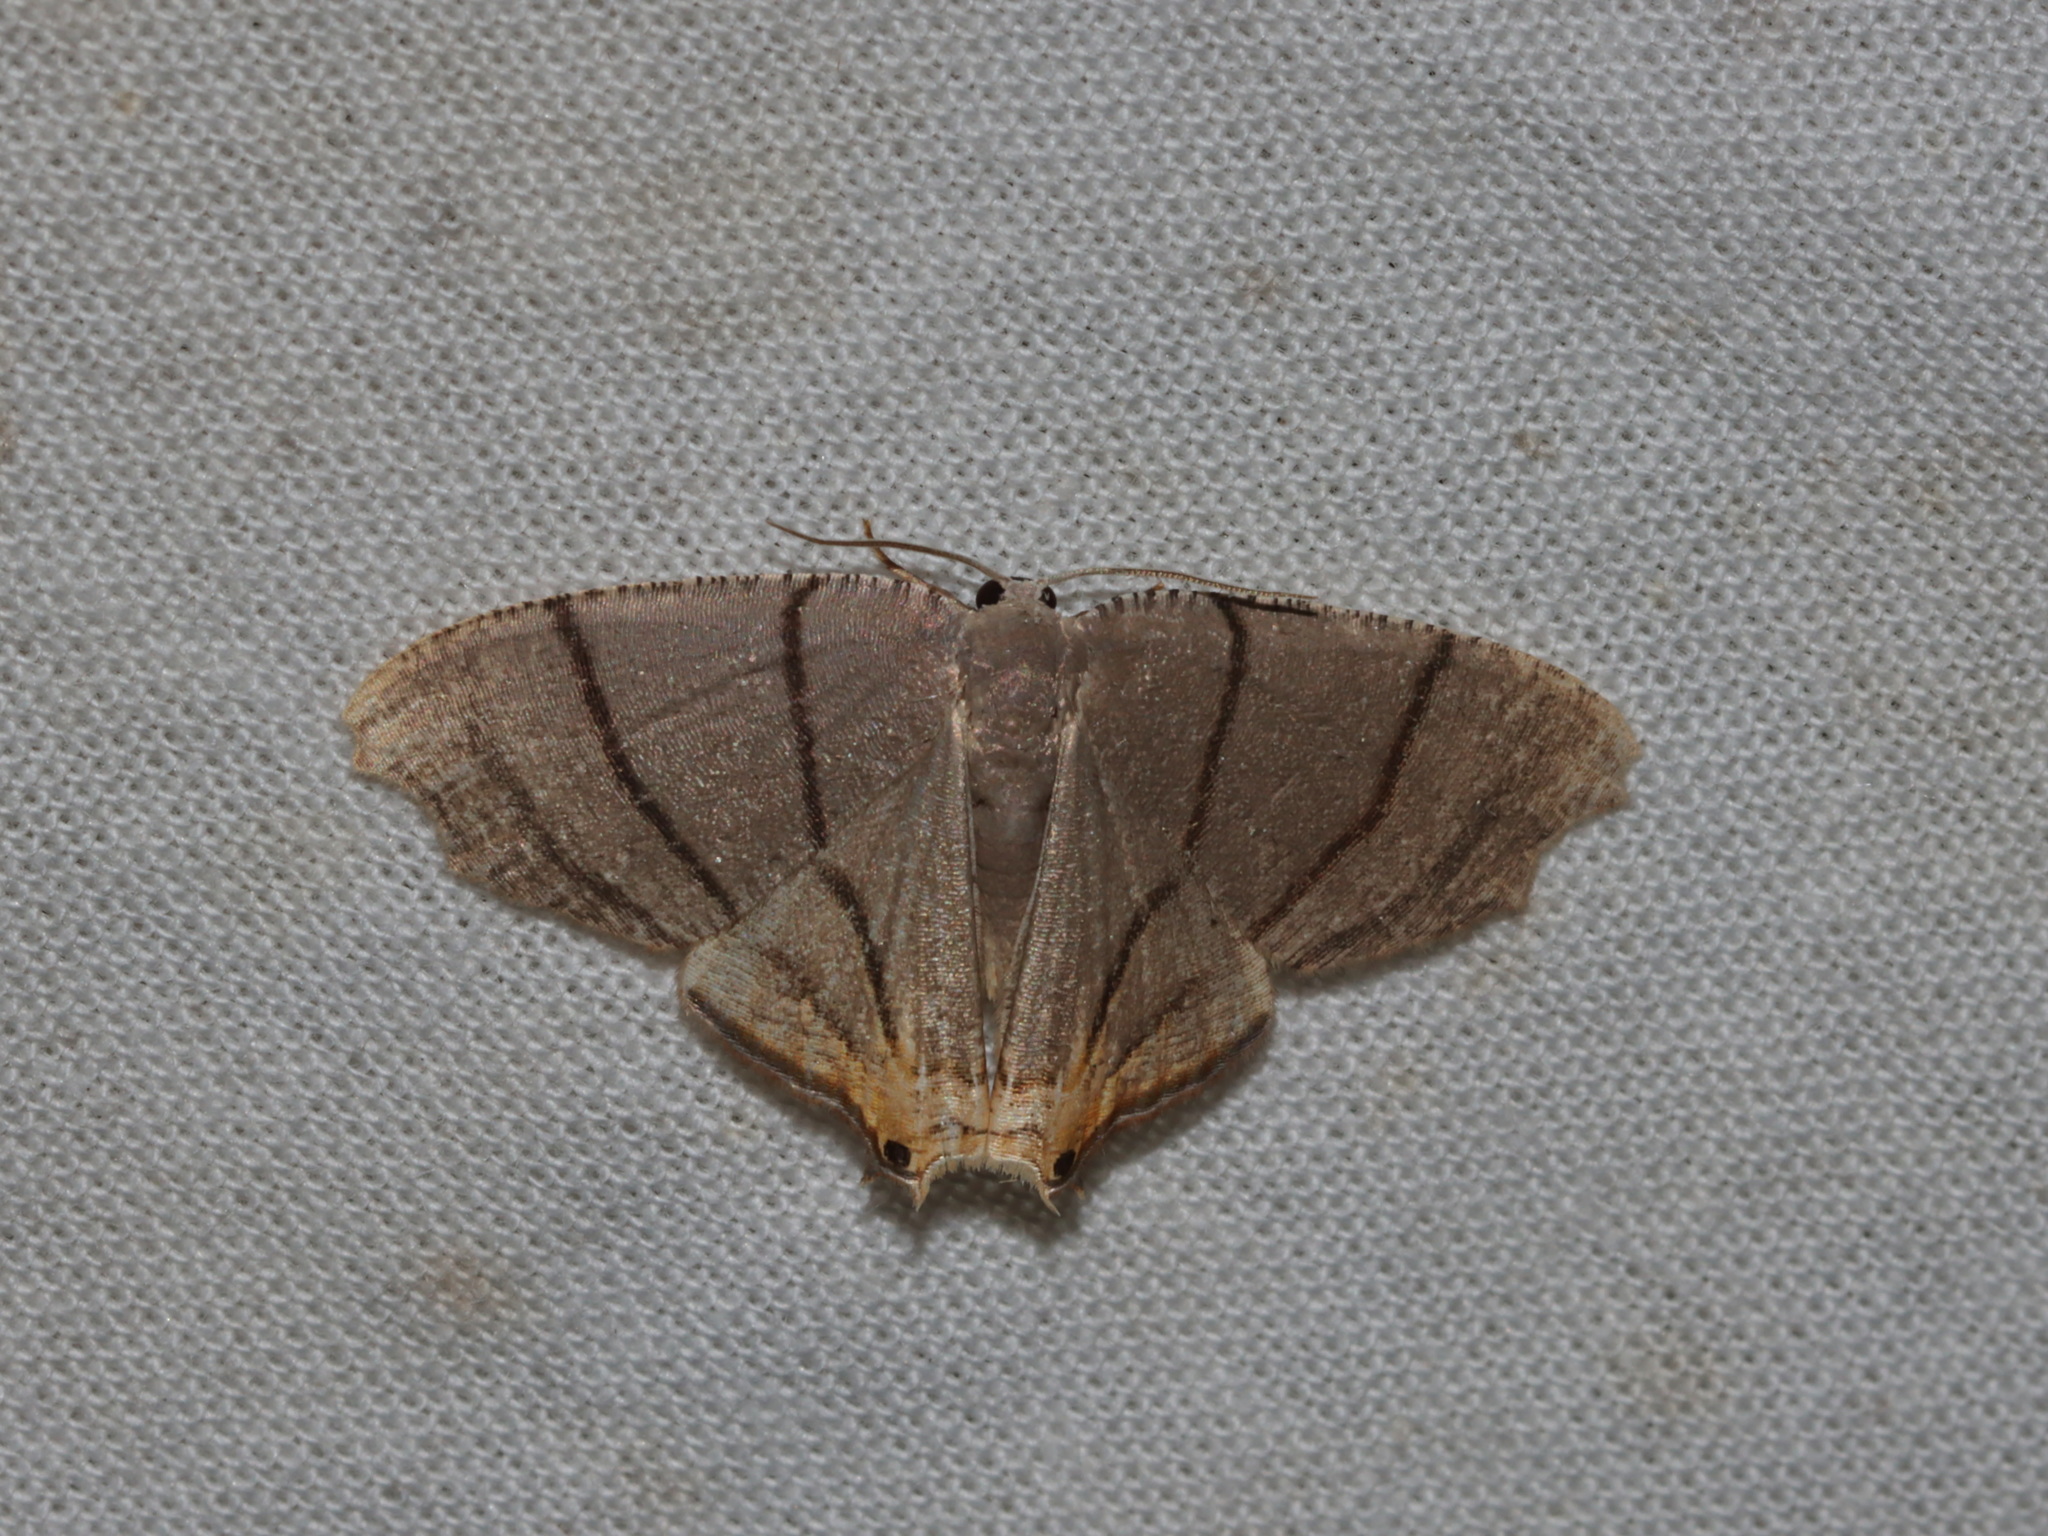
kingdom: Animalia
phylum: Arthropoda
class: Insecta
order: Lepidoptera
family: Uraniidae
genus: Orudiza
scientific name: Orudiza protheclaria
